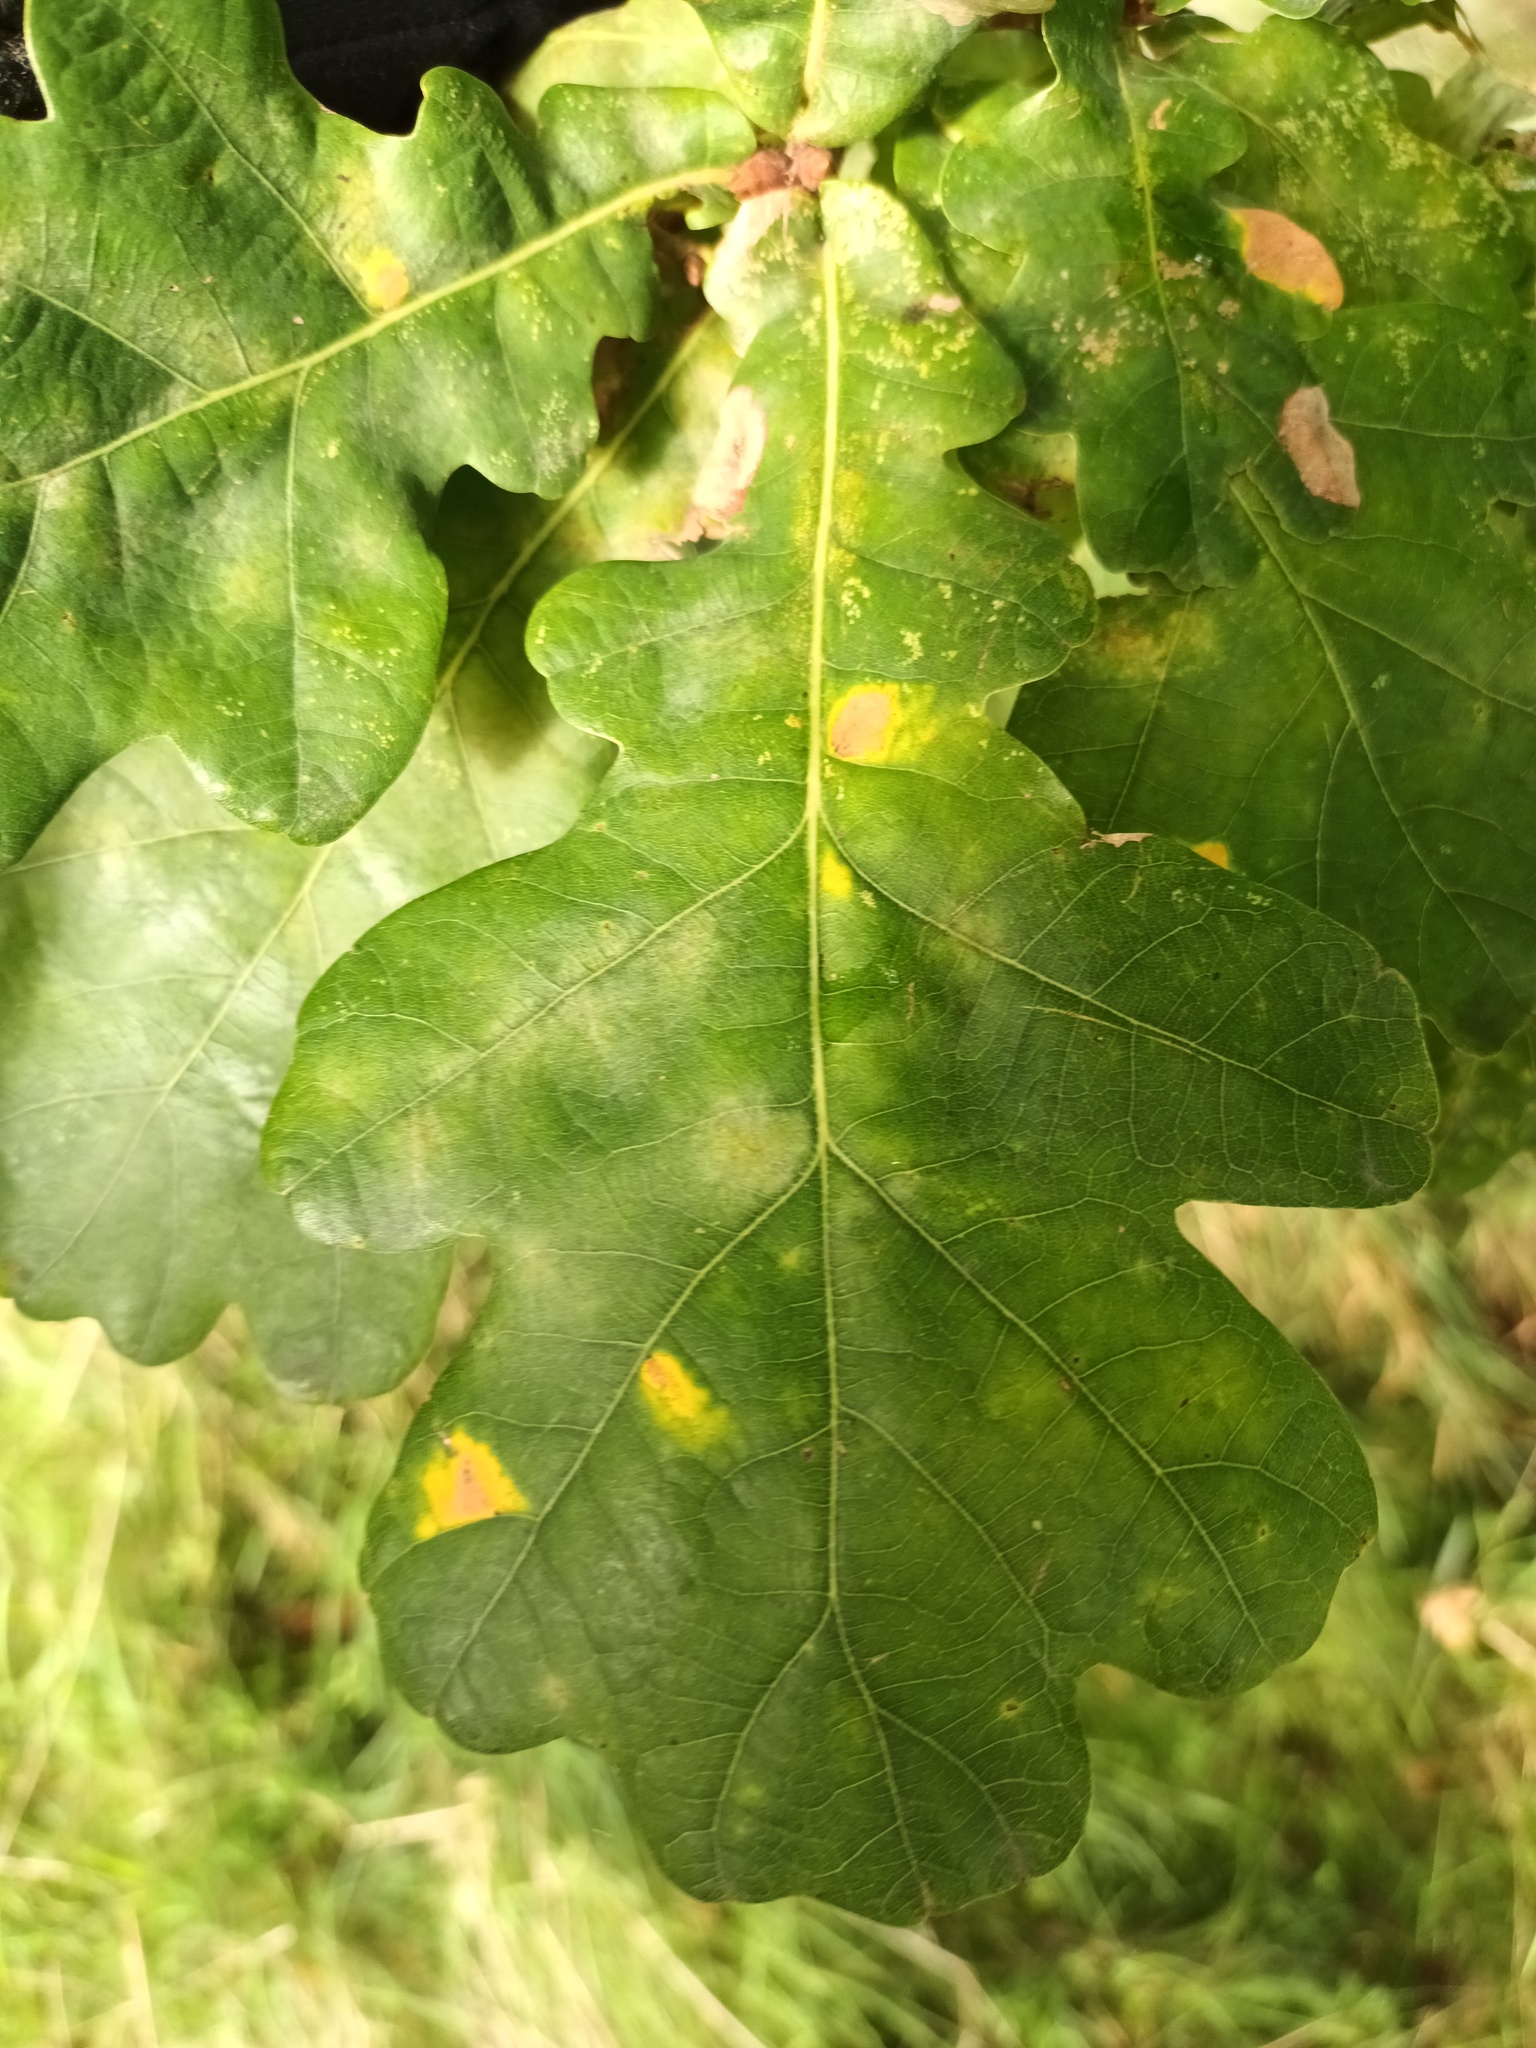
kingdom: Animalia
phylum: Arthropoda
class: Insecta
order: Hymenoptera
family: Cynipidae
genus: Neuroterus
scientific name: Neuroterus albipes
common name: Smooth spangle gall
